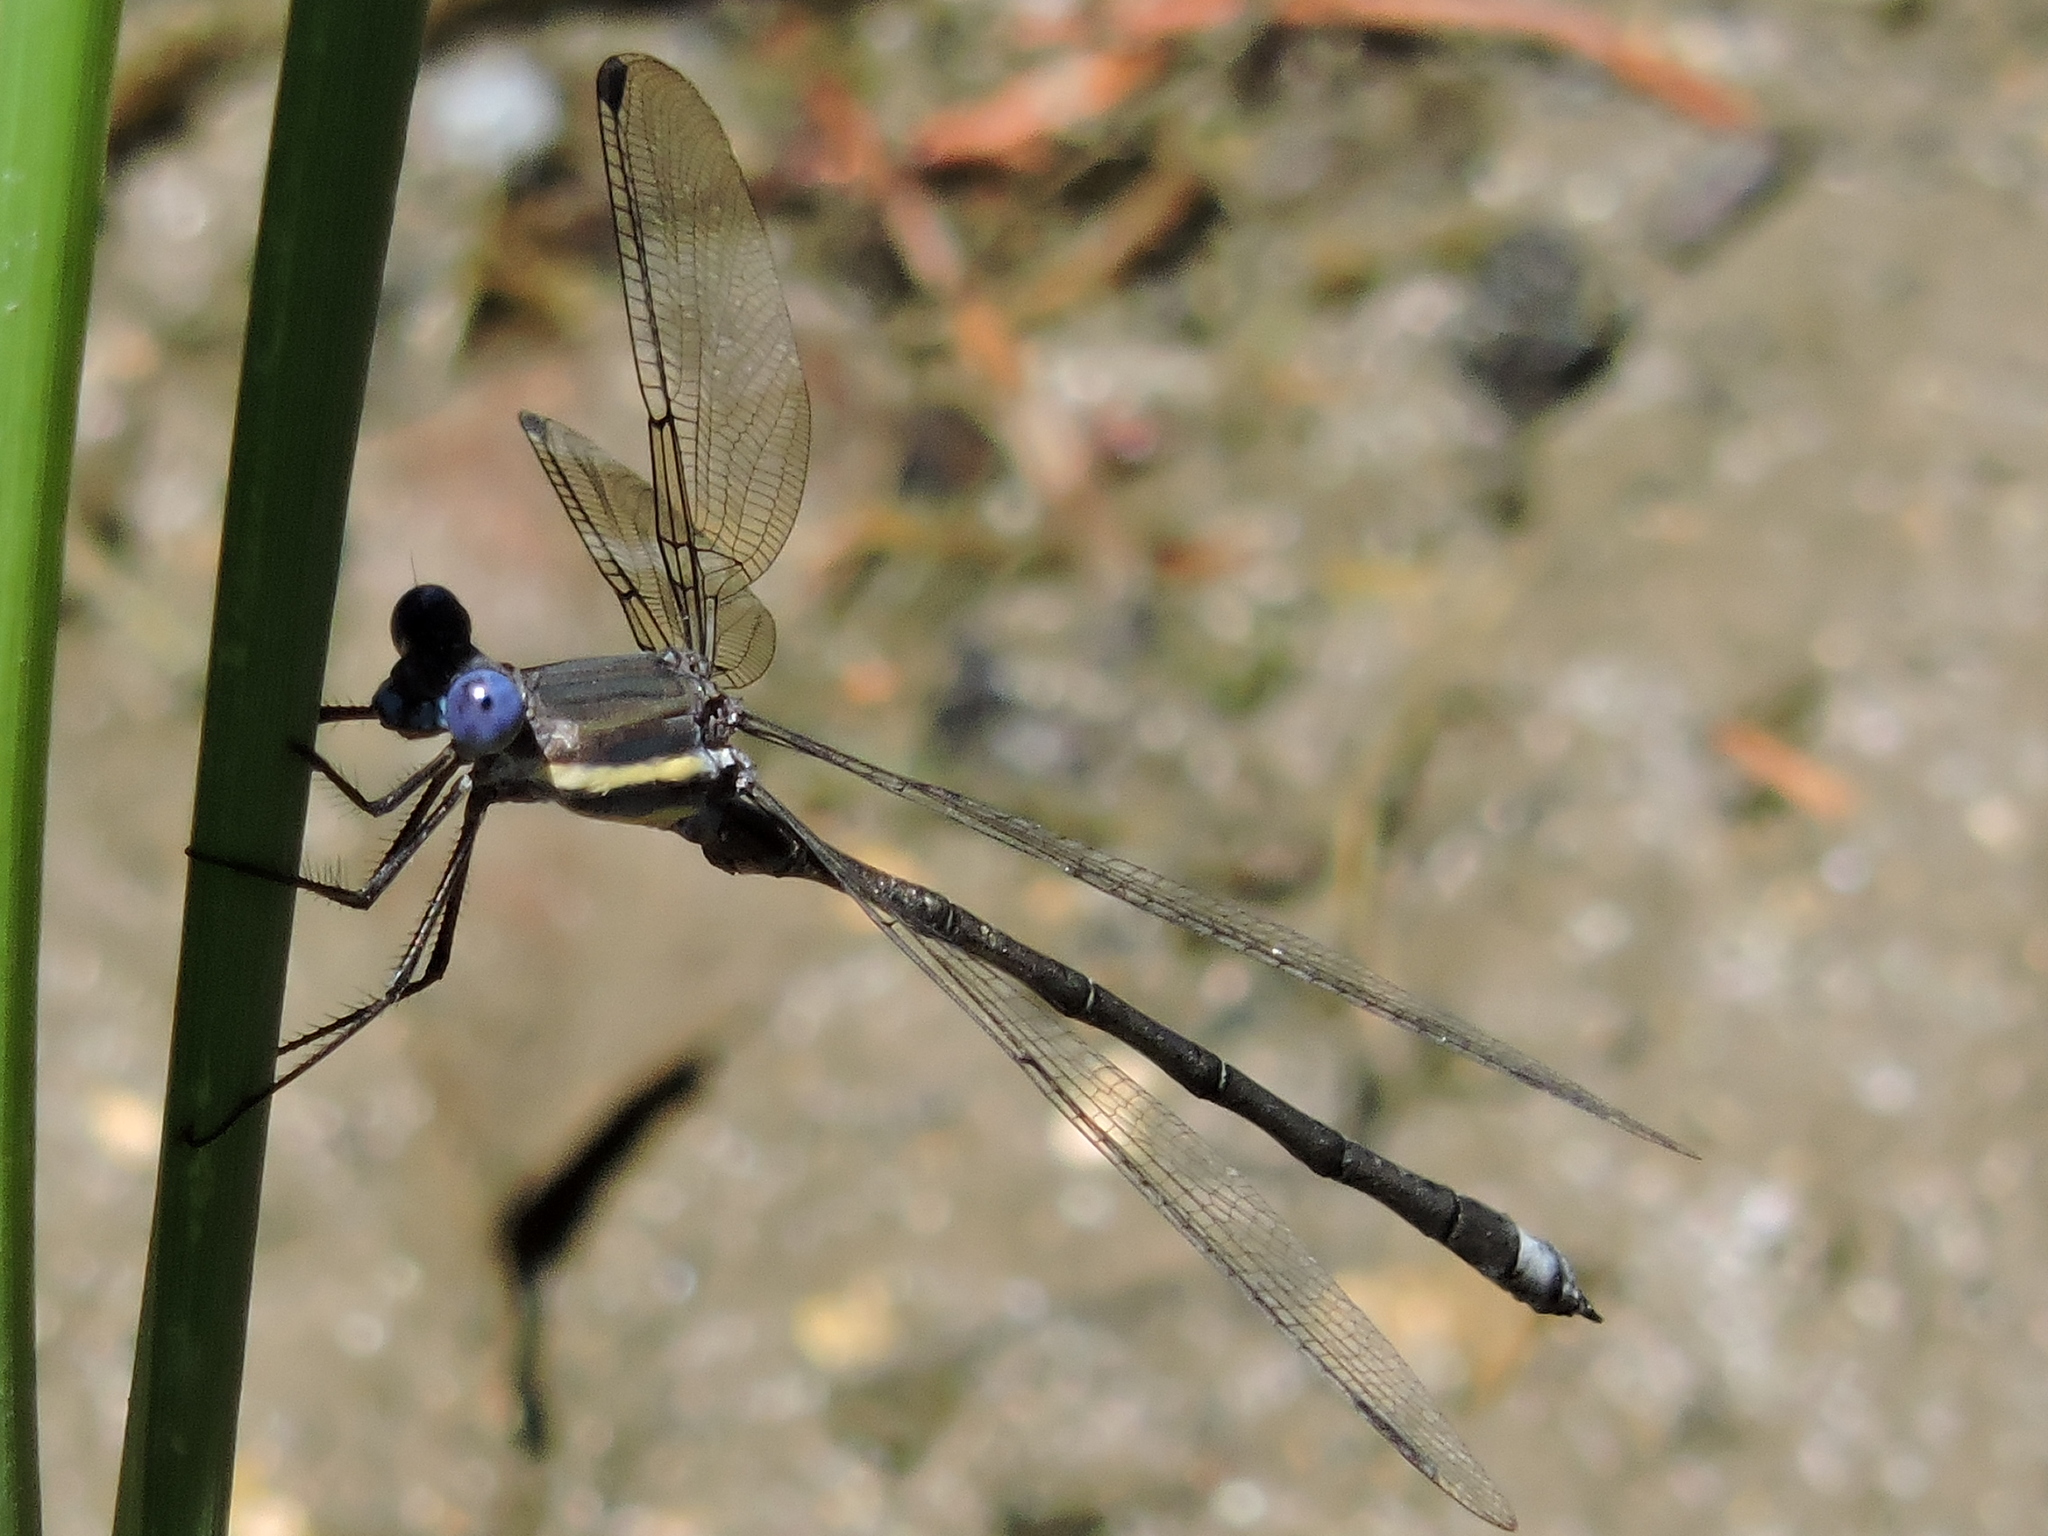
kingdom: Animalia
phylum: Arthropoda
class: Insecta
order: Odonata
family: Lestidae
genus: Archilestes
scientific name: Archilestes grandis
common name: Great spreadwing
